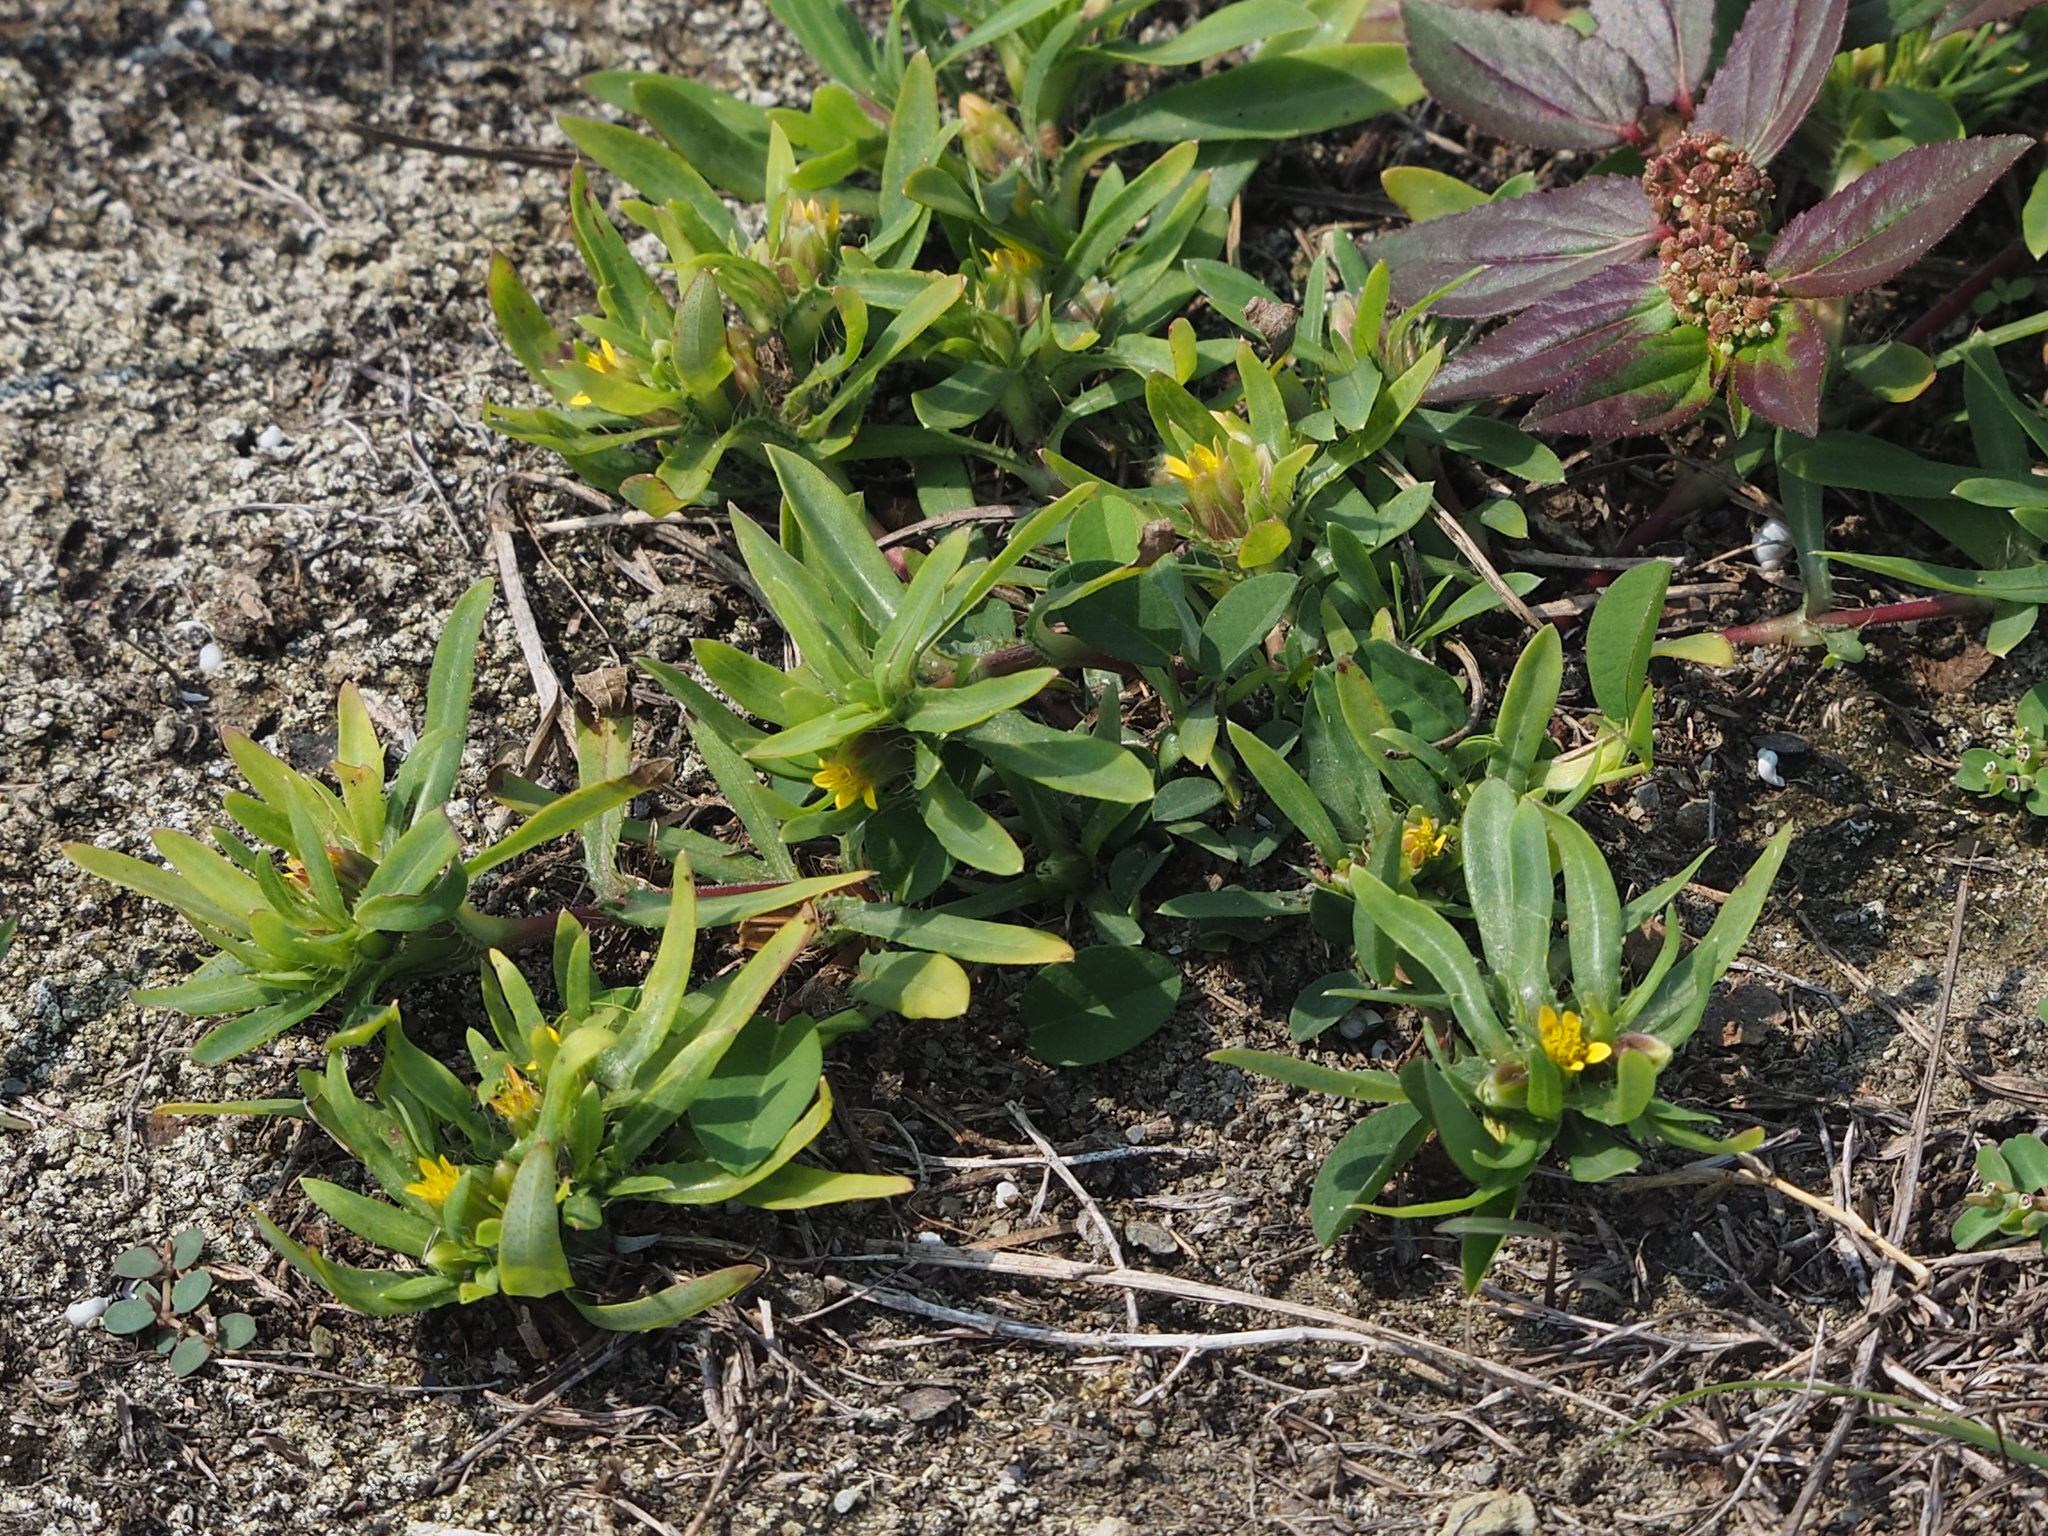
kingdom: Plantae
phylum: Tracheophyta
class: Magnoliopsida
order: Asterales
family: Asteraceae
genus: Pectis
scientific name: Pectis prostrata
